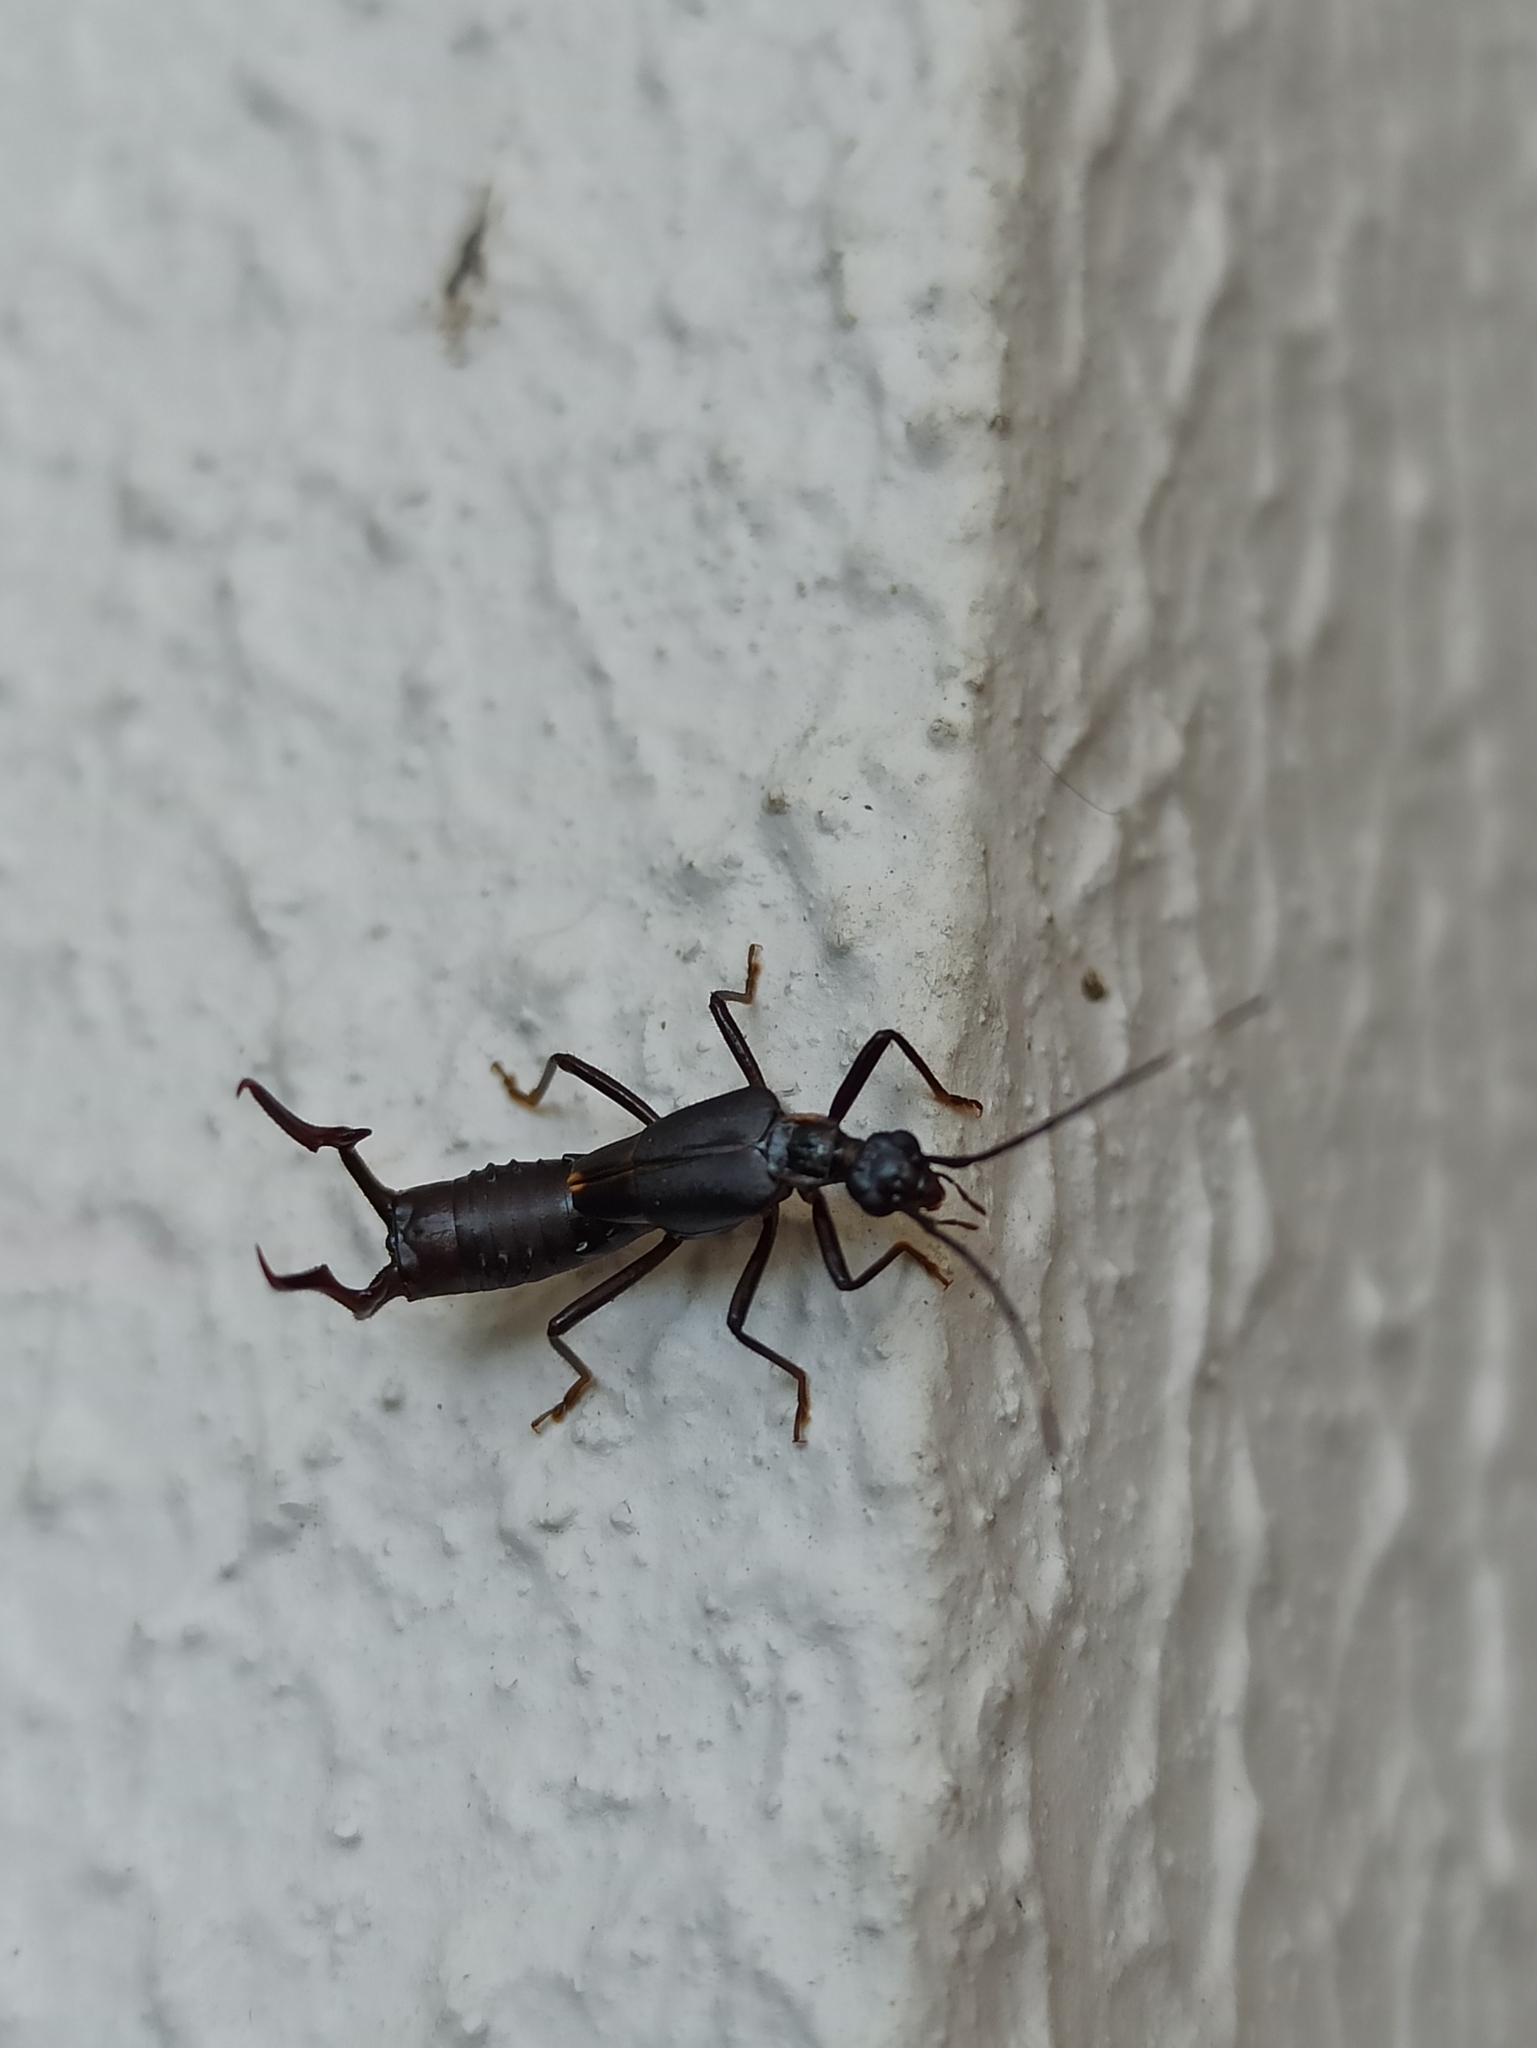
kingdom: Animalia
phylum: Arthropoda
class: Insecta
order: Dermaptera
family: Forficulidae
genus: Kleter
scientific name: Kleter aterrima
